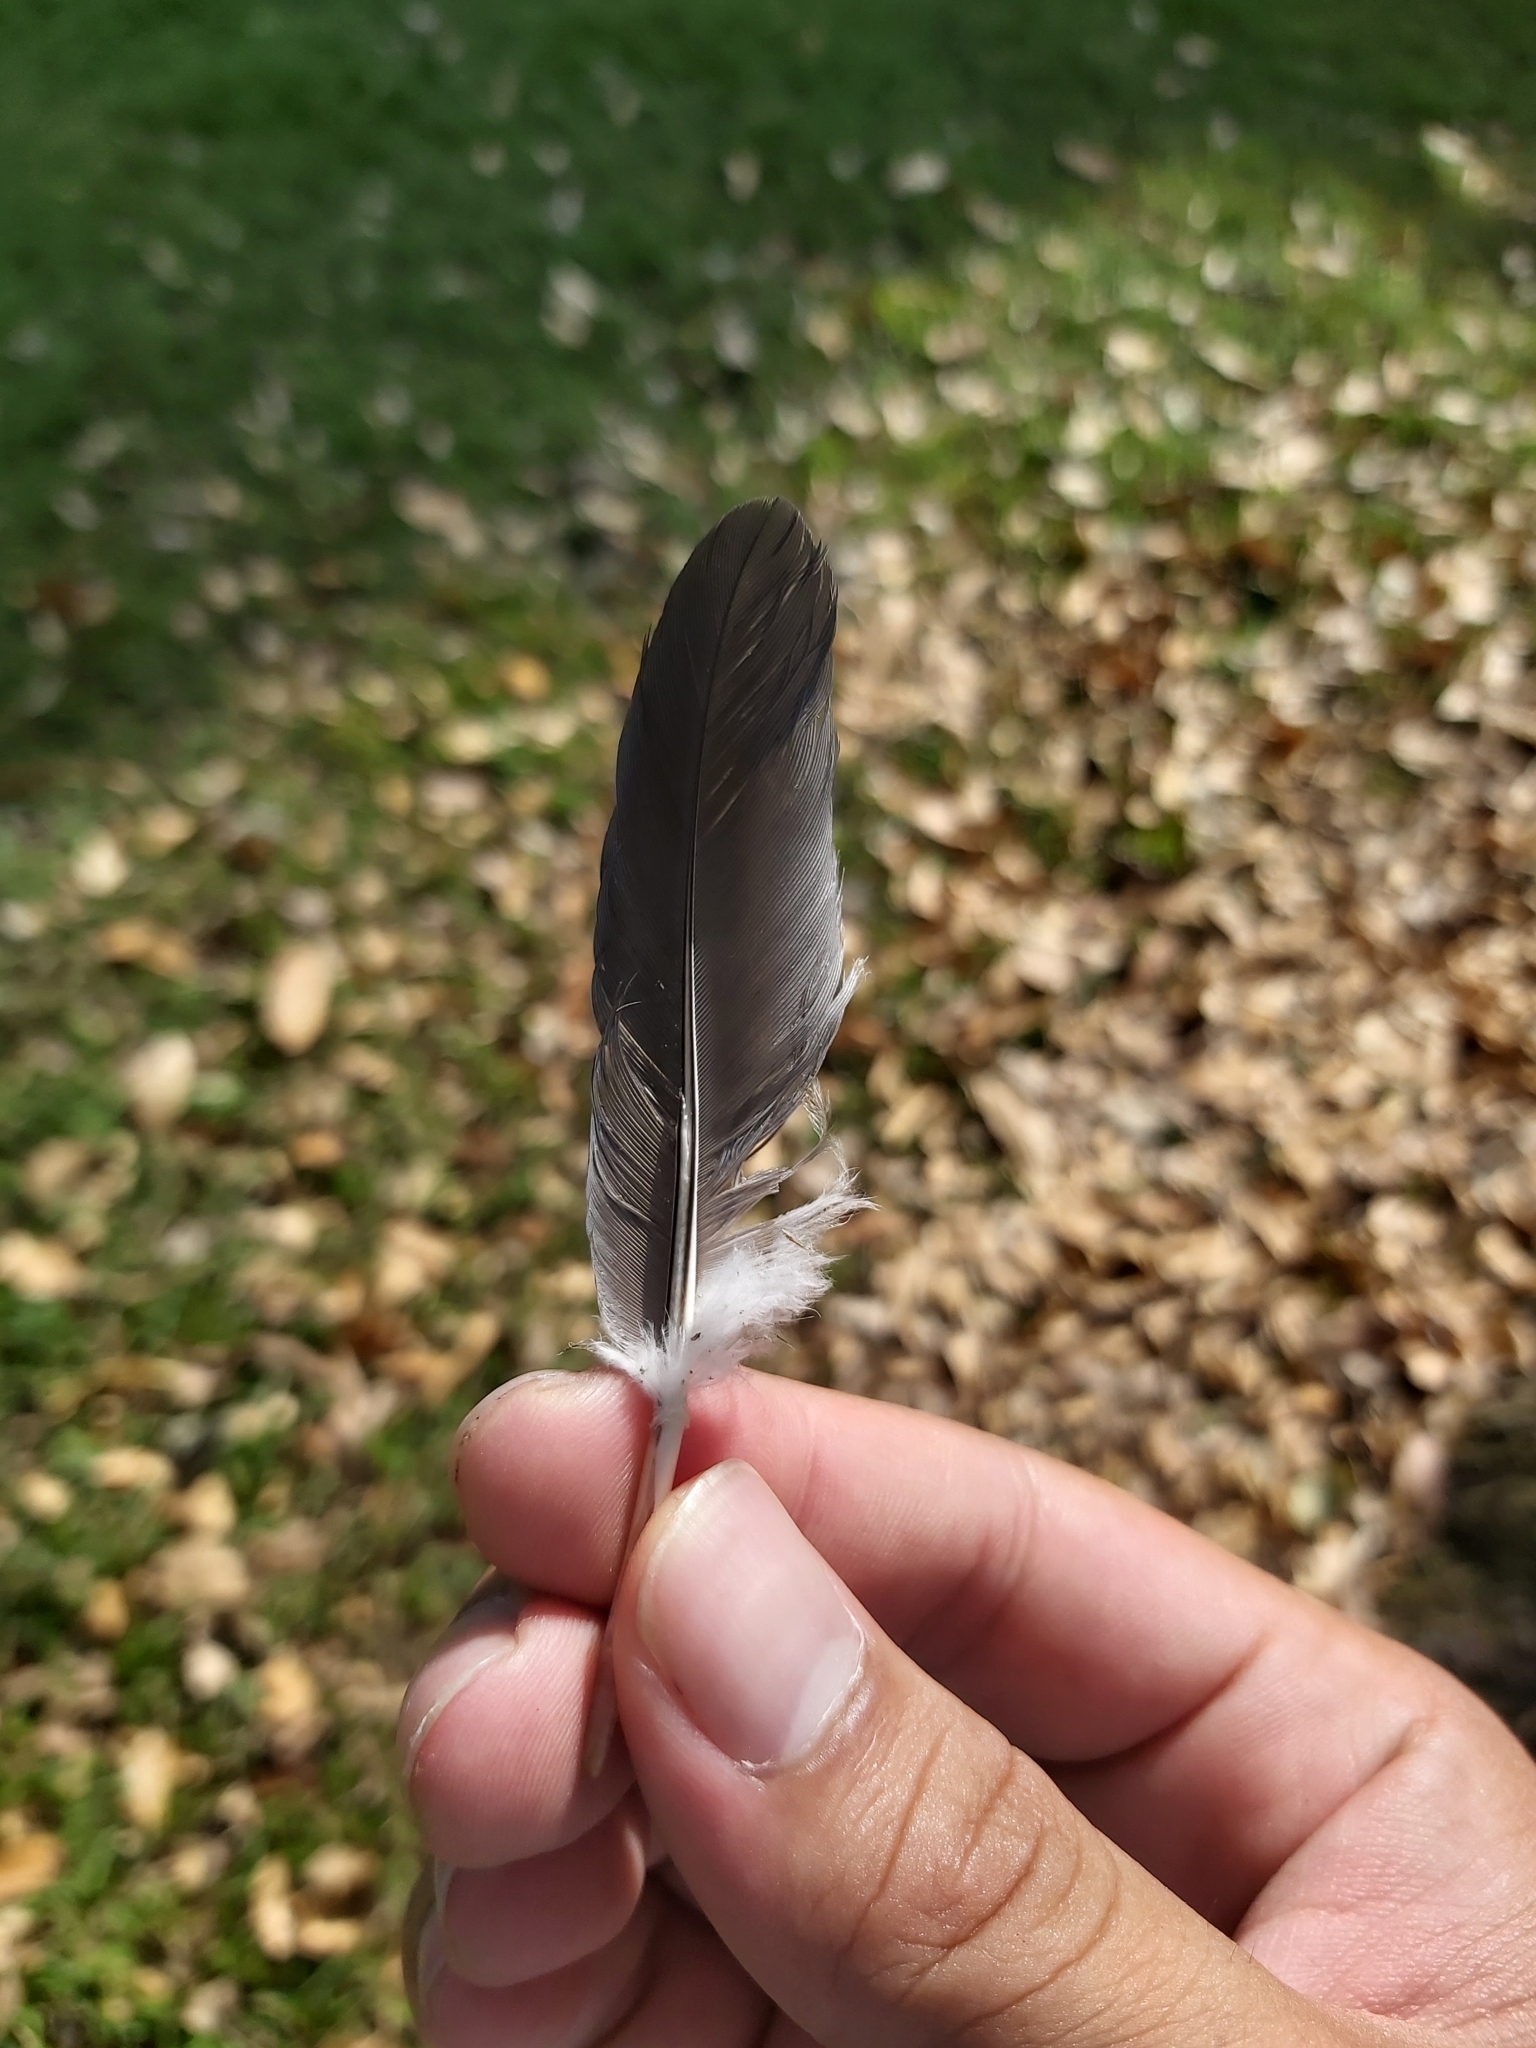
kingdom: Animalia
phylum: Chordata
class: Aves
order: Columbiformes
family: Columbidae
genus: Lopholaimus
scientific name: Lopholaimus antarcticus
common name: Topknot pigeon
